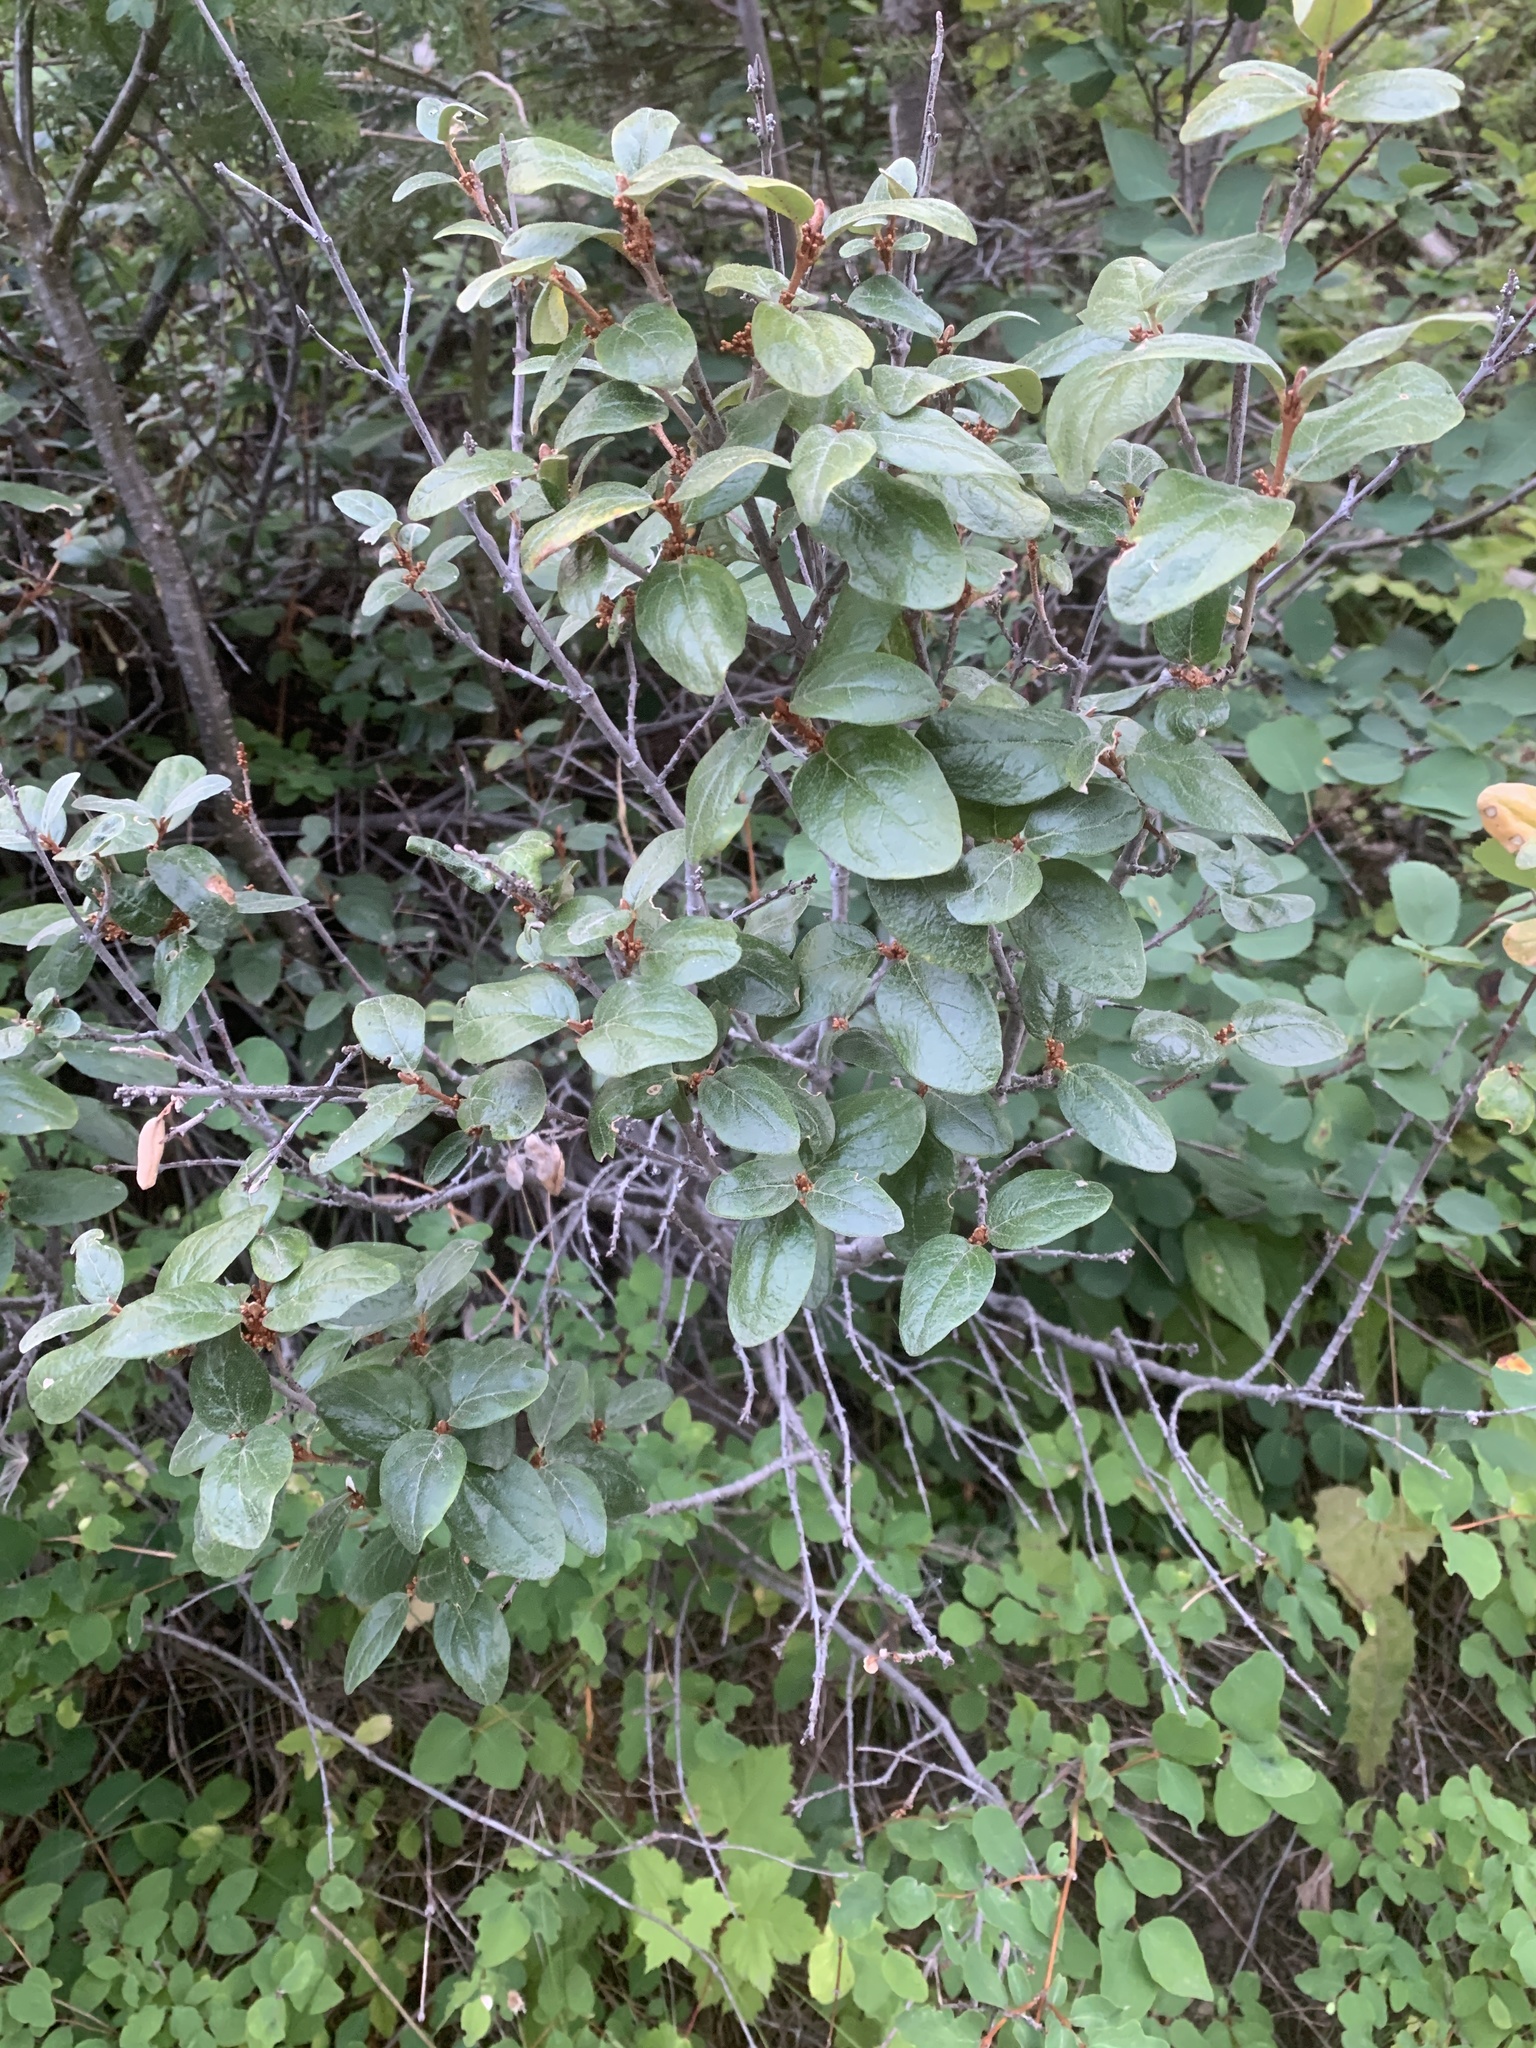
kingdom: Plantae
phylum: Tracheophyta
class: Magnoliopsida
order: Rosales
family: Elaeagnaceae
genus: Shepherdia
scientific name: Shepherdia canadensis
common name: Soapberry
